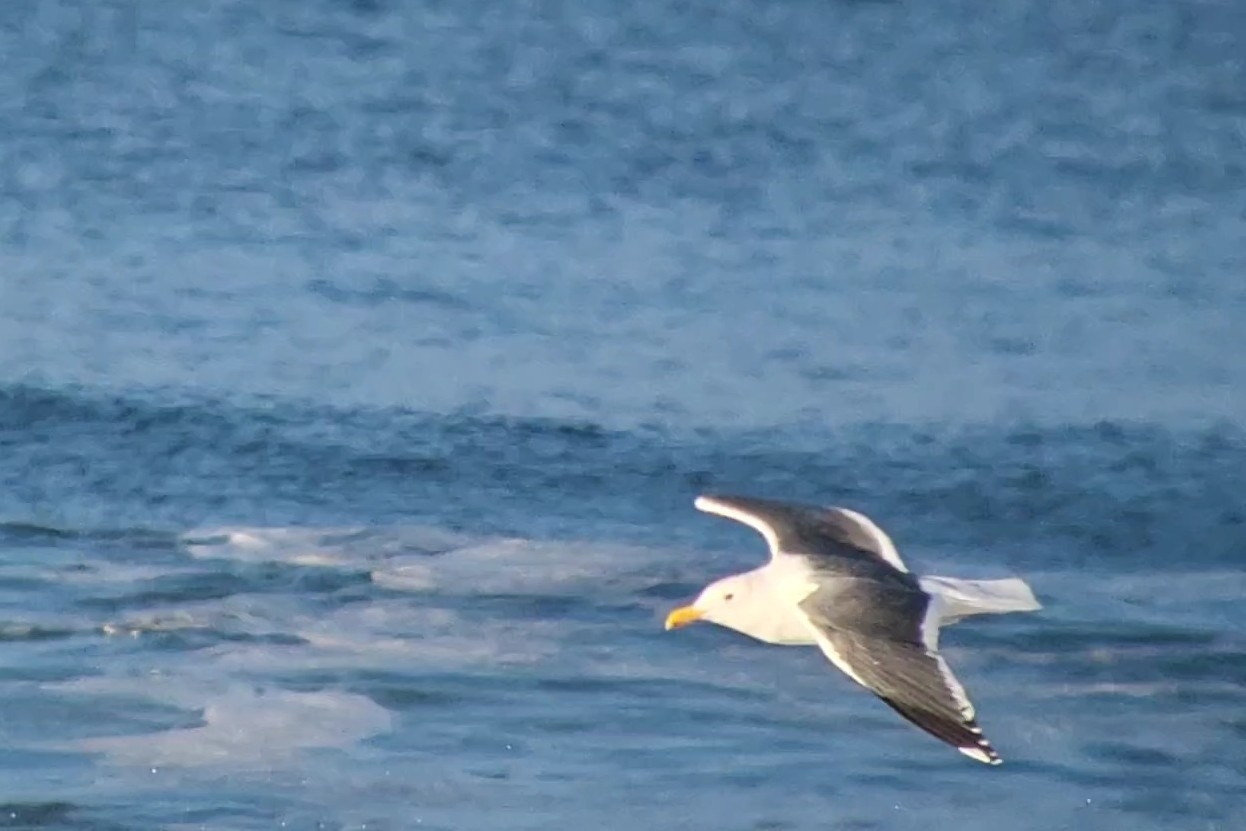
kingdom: Animalia
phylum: Chordata
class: Aves
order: Charadriiformes
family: Laridae
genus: Larus
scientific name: Larus occidentalis
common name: Western gull
